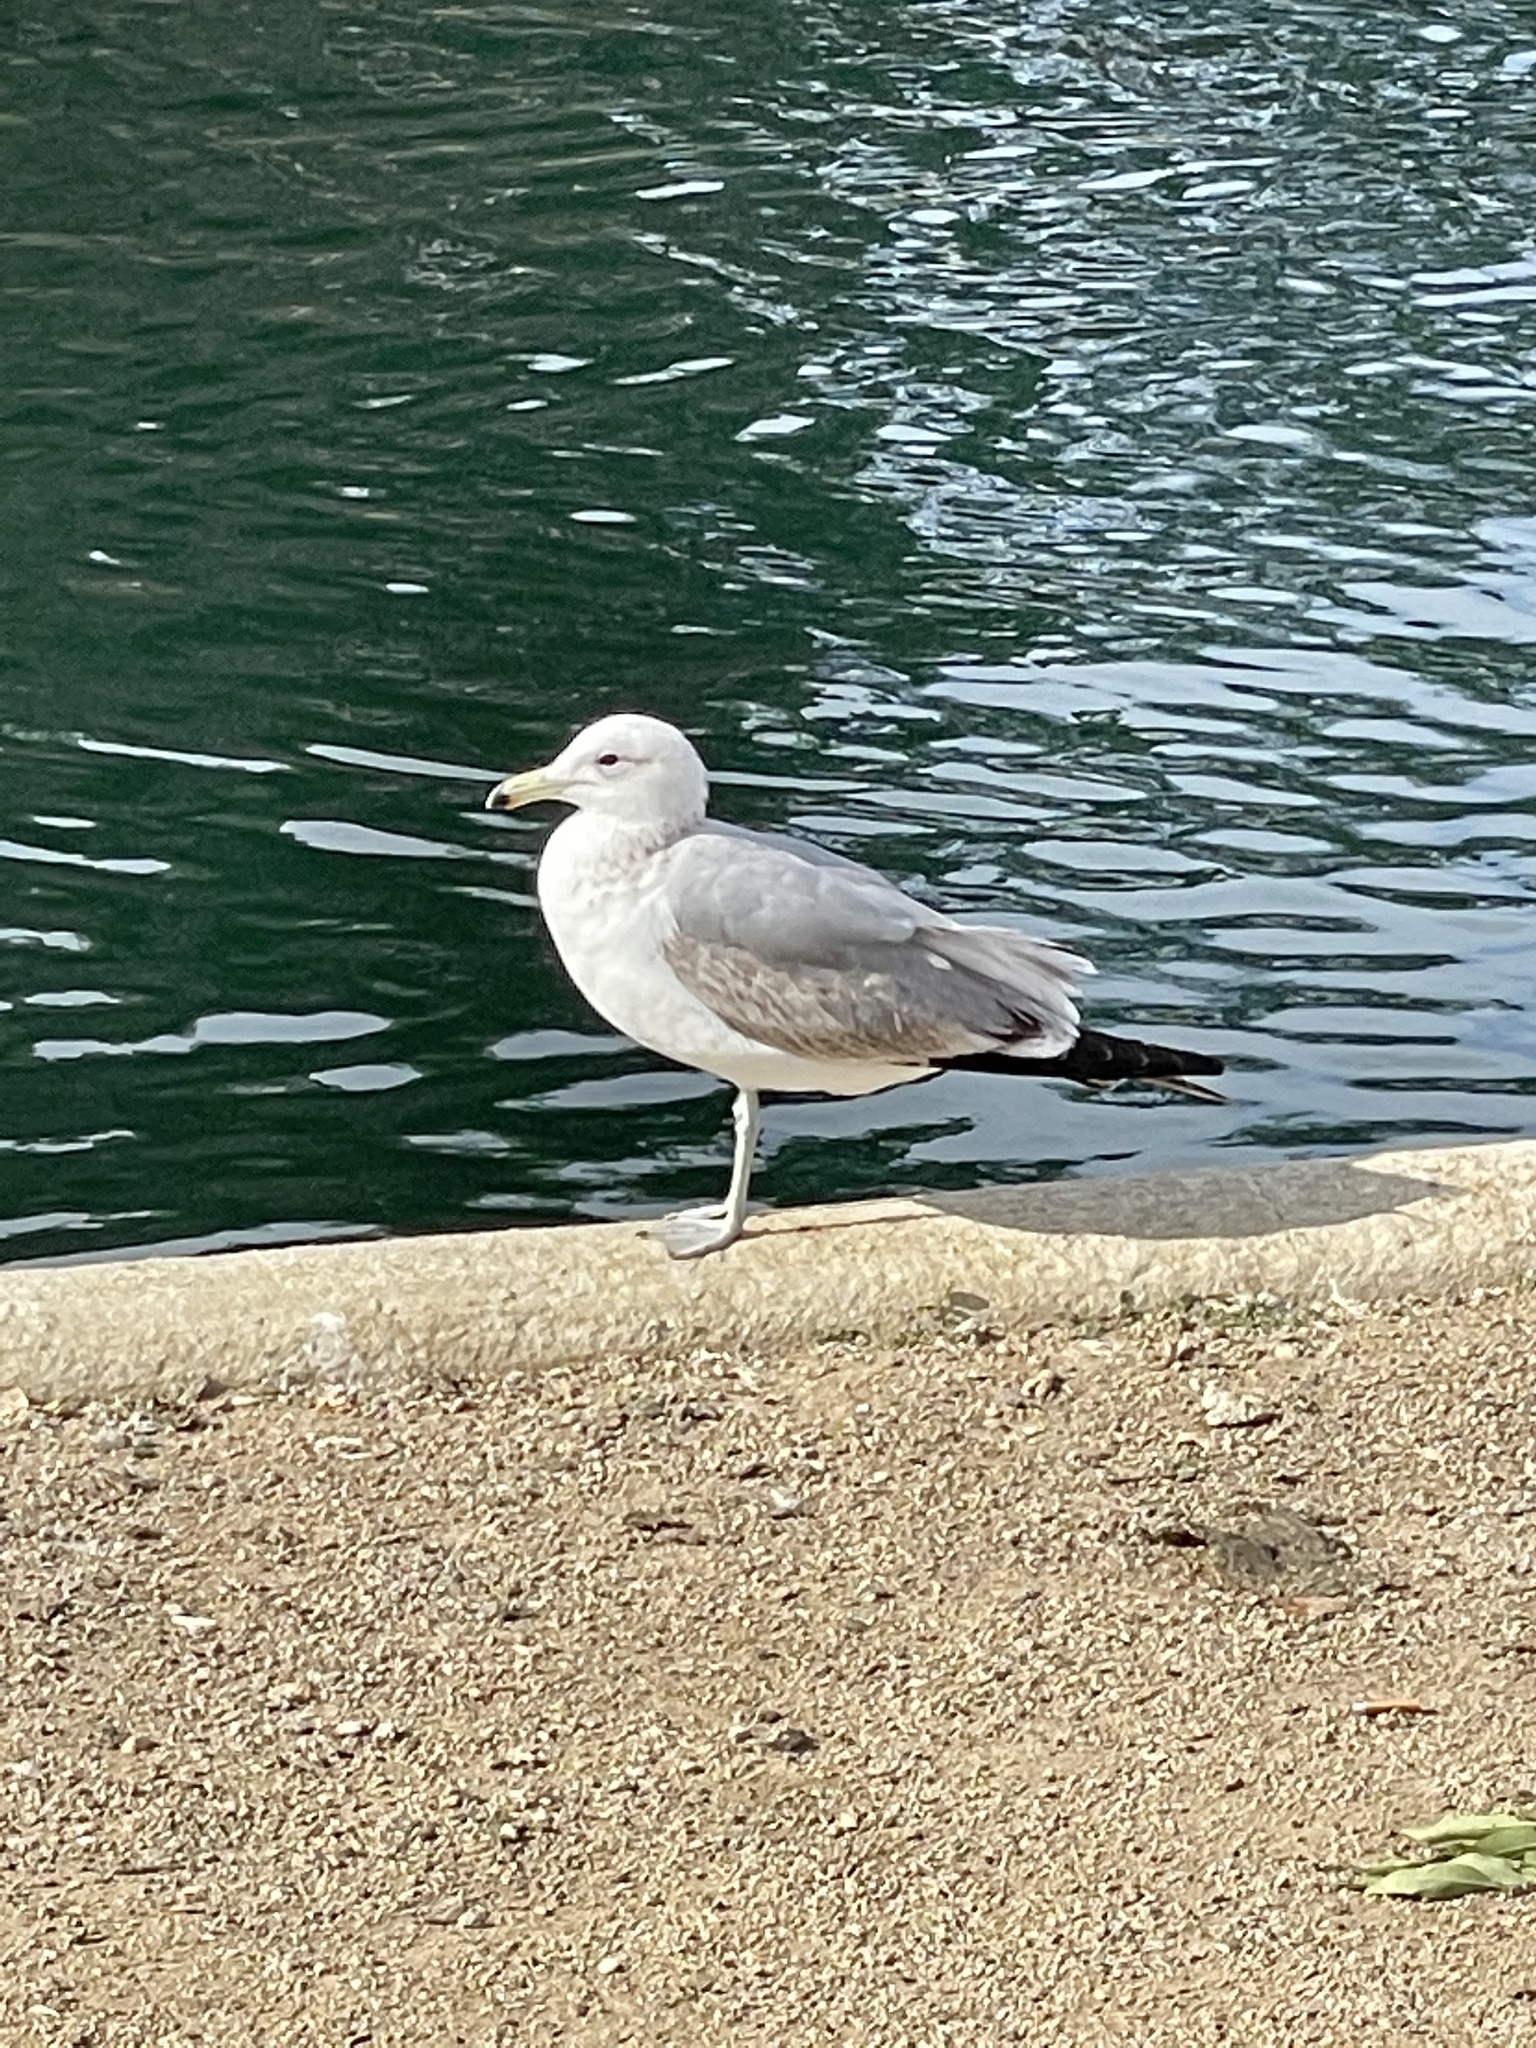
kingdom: Animalia
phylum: Chordata
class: Aves
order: Charadriiformes
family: Laridae
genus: Larus
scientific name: Larus californicus
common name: California gull
